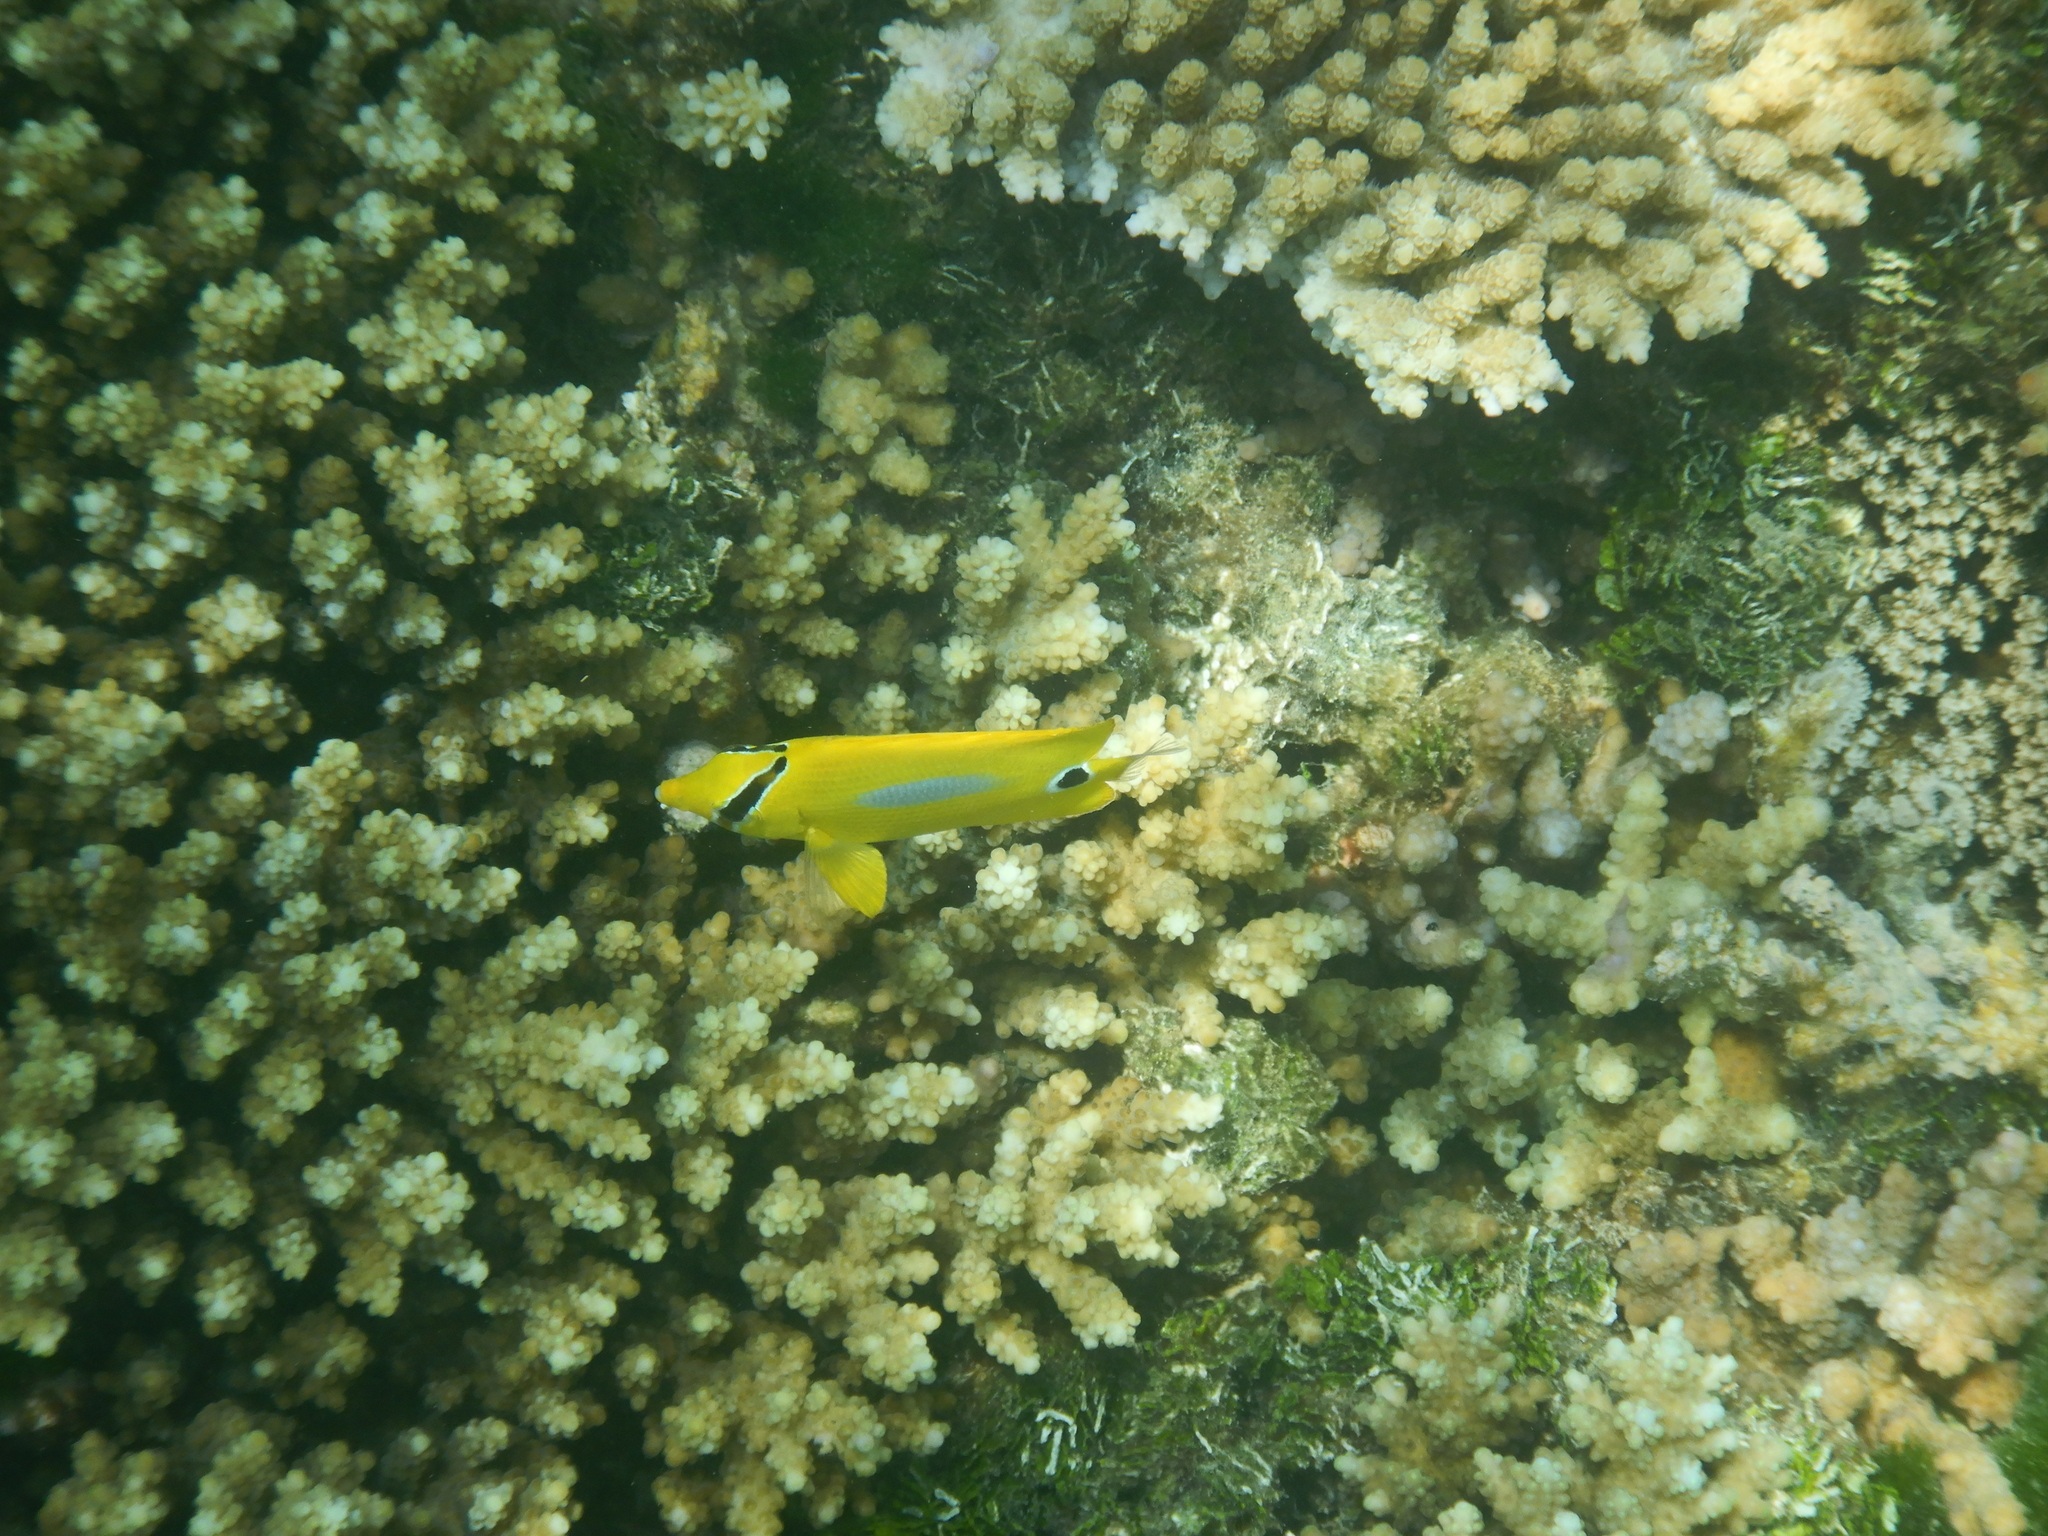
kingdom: Animalia
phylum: Chordata
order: Perciformes
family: Chaetodontidae
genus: Chaetodon
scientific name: Chaetodon plebeius
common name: Bluespot butterflyfish
